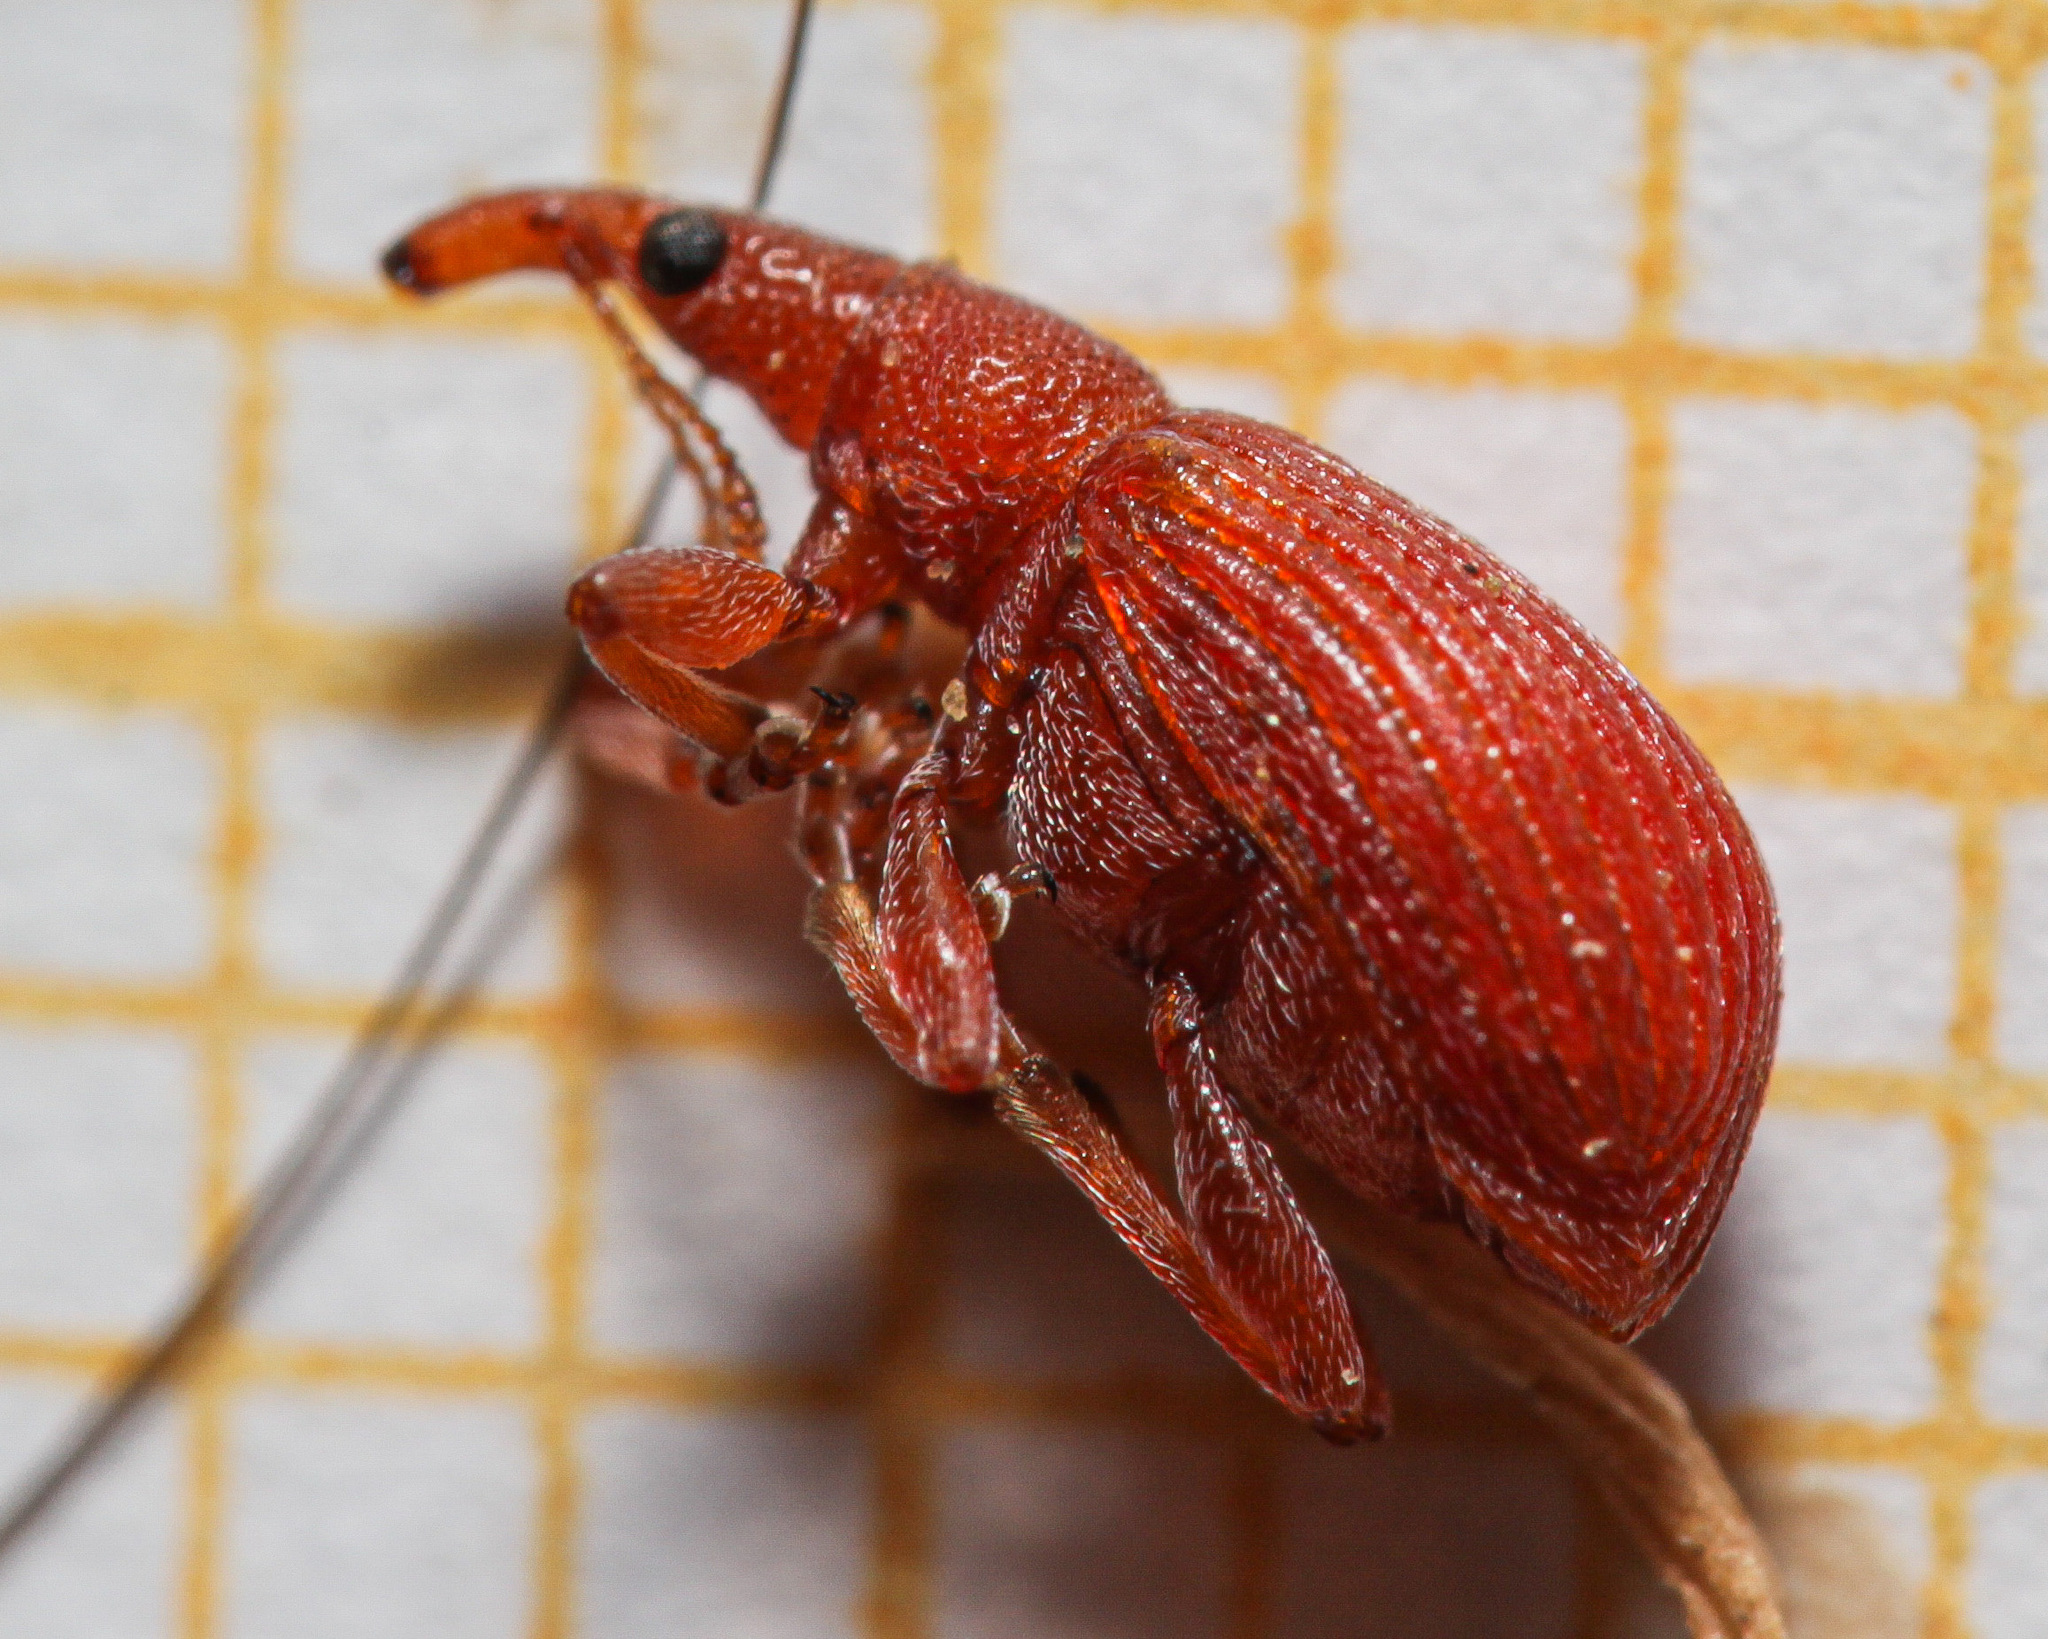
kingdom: Animalia
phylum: Arthropoda
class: Insecta
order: Coleoptera
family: Apionidae
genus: Apion
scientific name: Apion frumentarium
